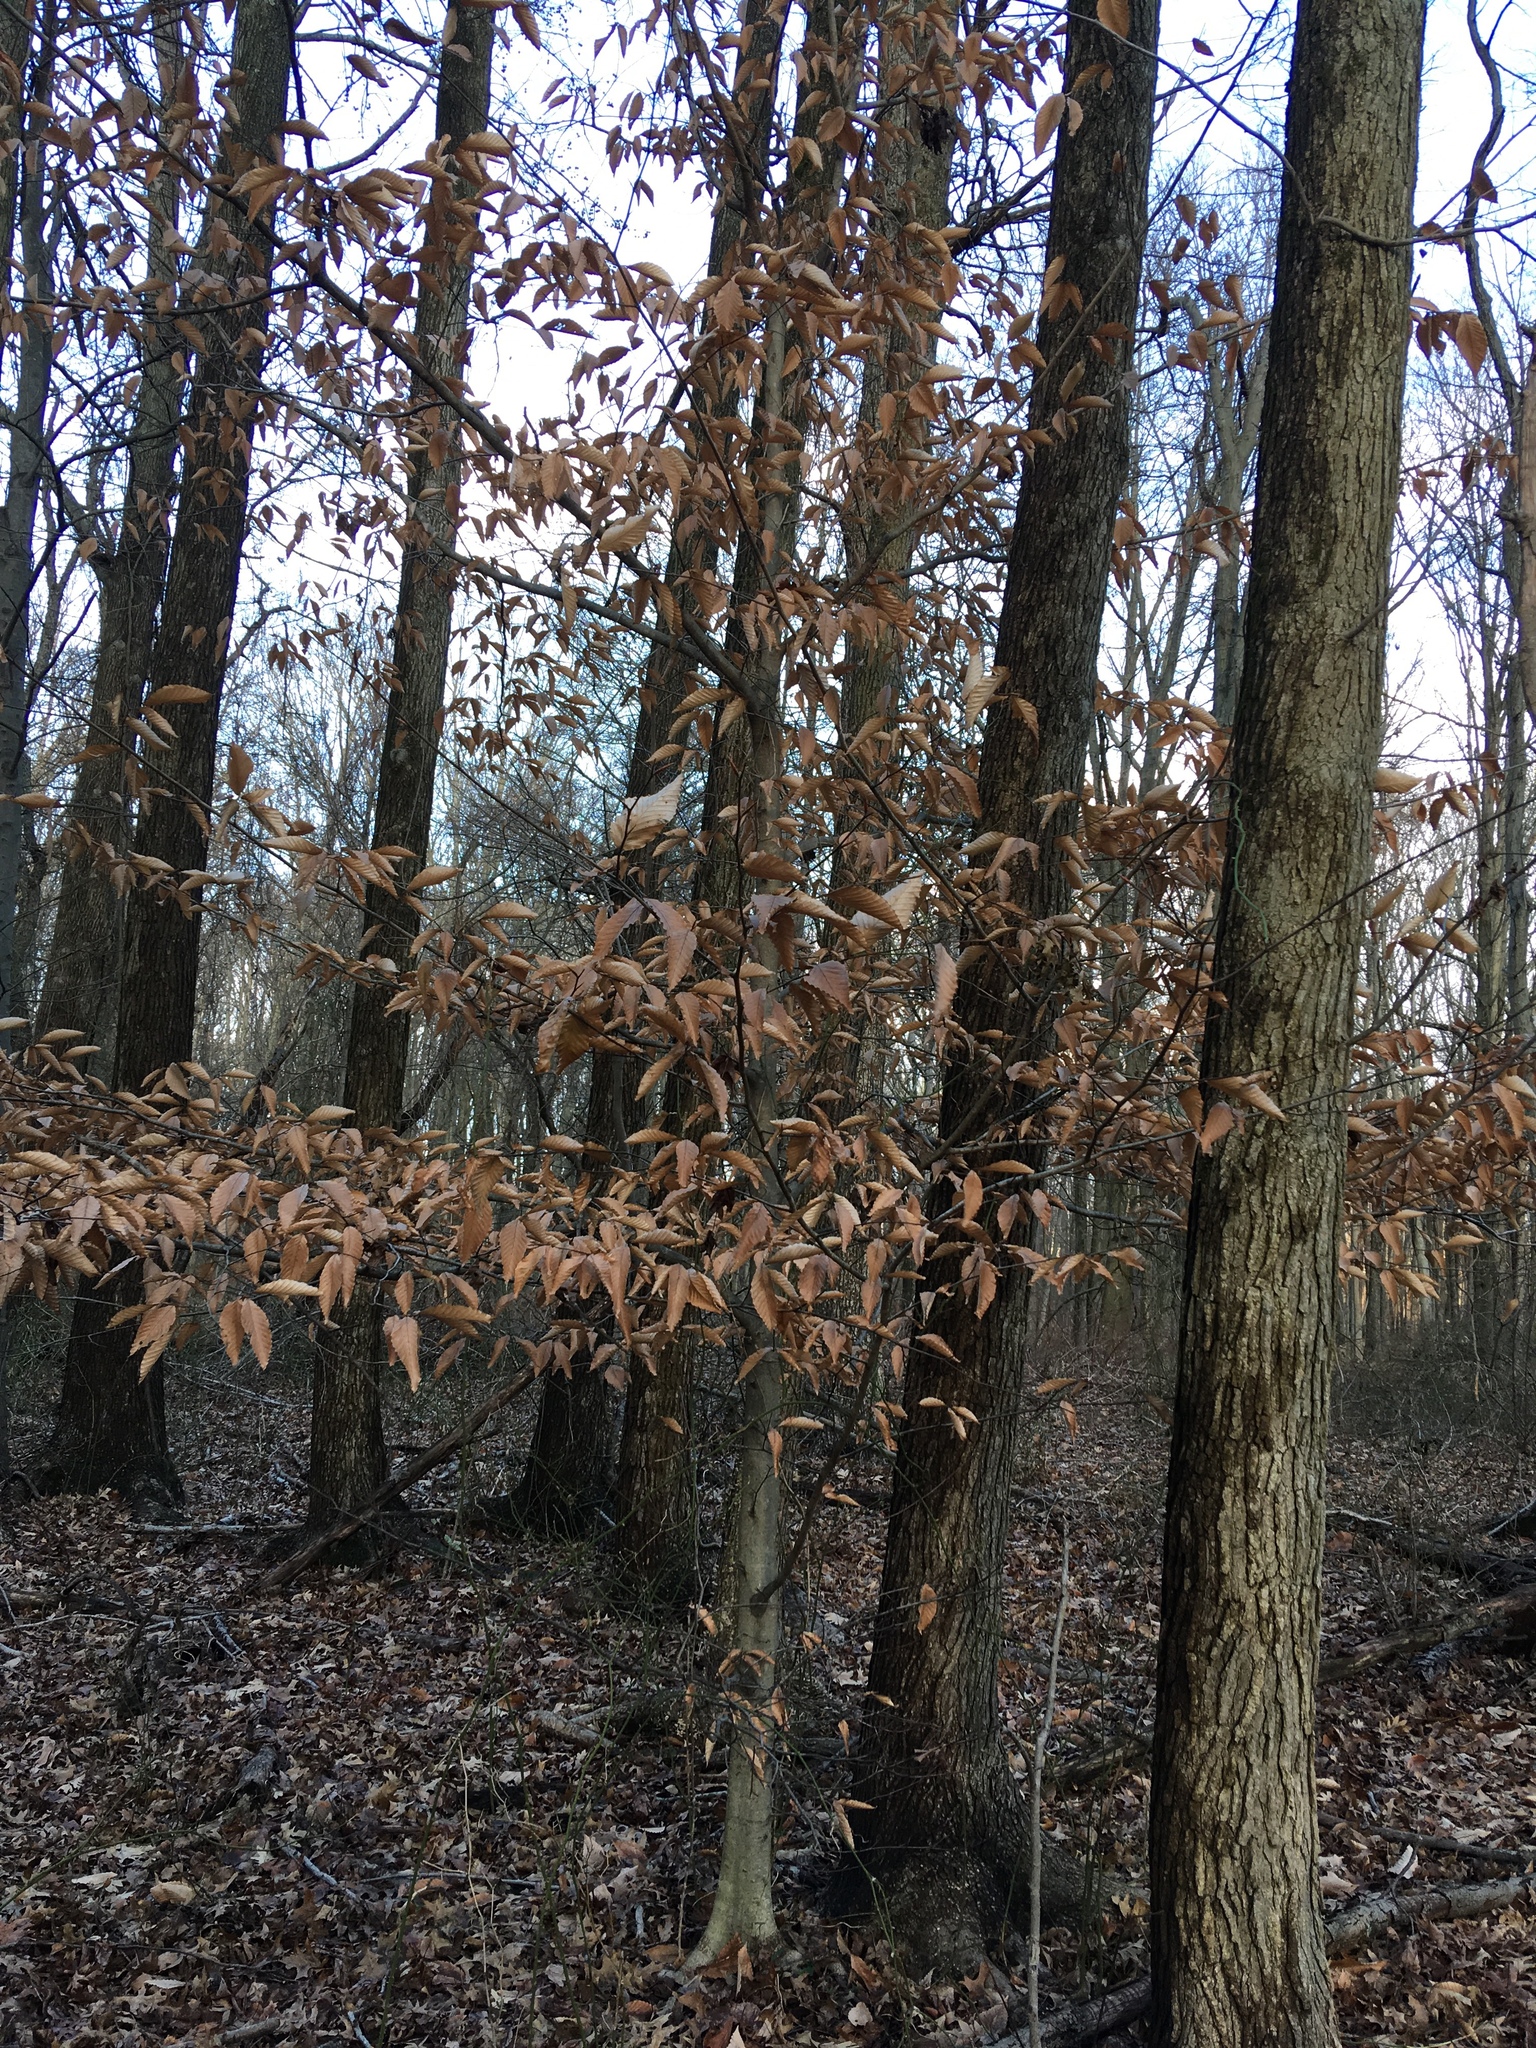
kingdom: Plantae
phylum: Tracheophyta
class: Magnoliopsida
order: Fagales
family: Fagaceae
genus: Fagus
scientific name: Fagus grandifolia
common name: American beech
